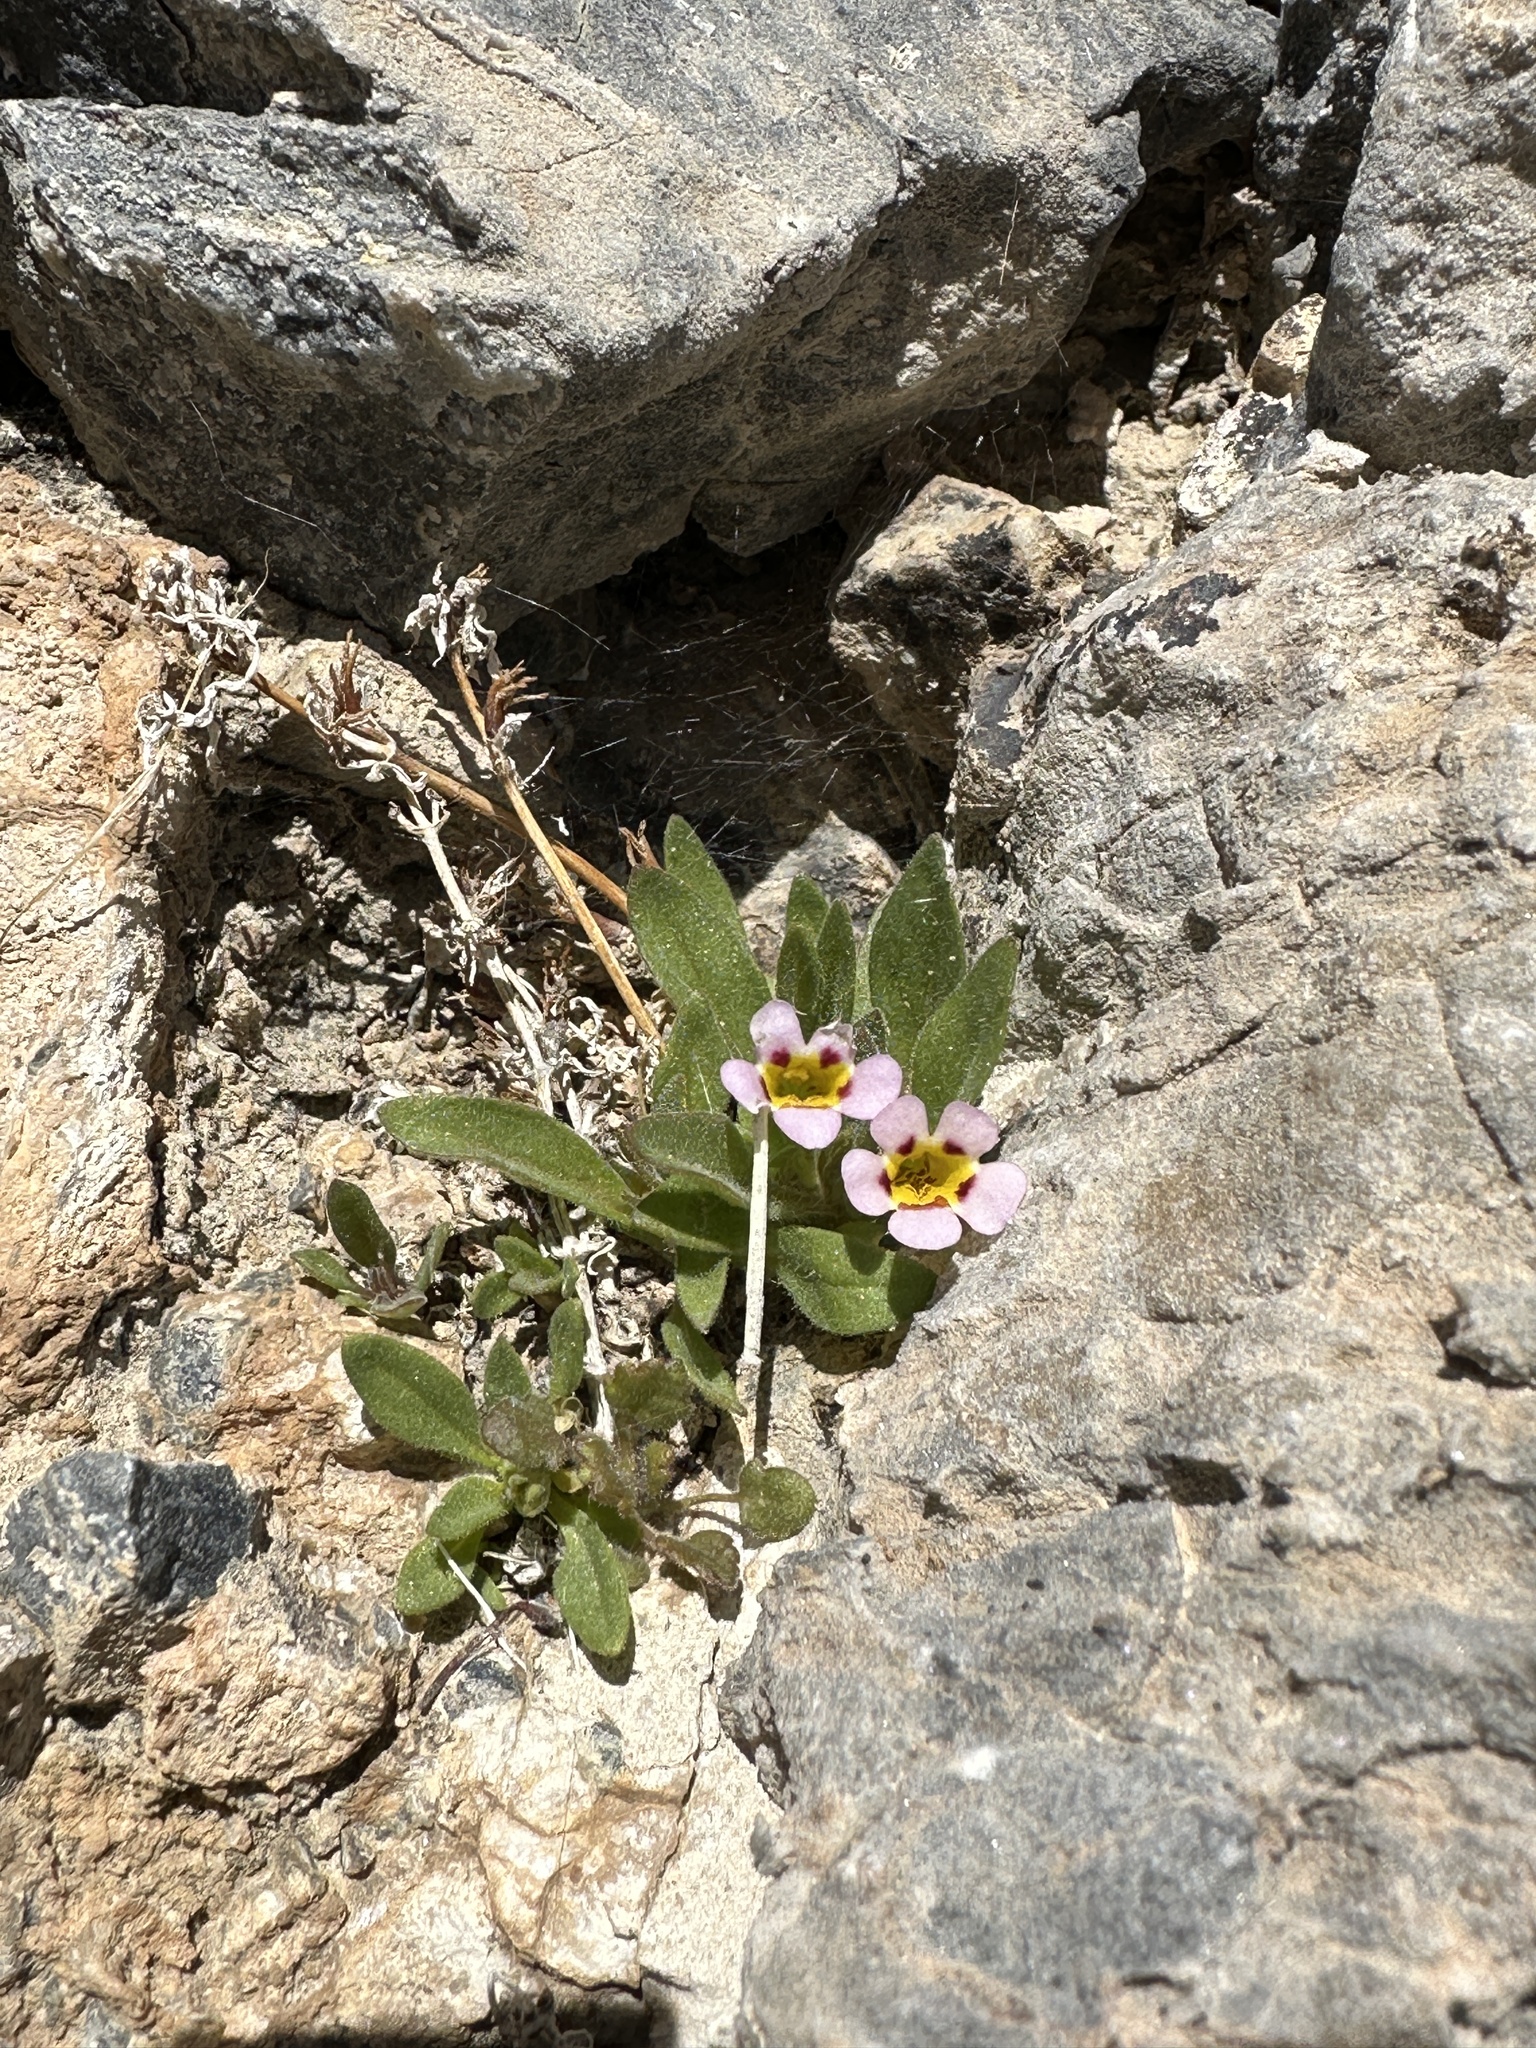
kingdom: Plantae
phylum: Tracheophyta
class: Magnoliopsida
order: Lamiales
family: Phrymaceae
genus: Diplacus
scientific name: Diplacus rupicola
